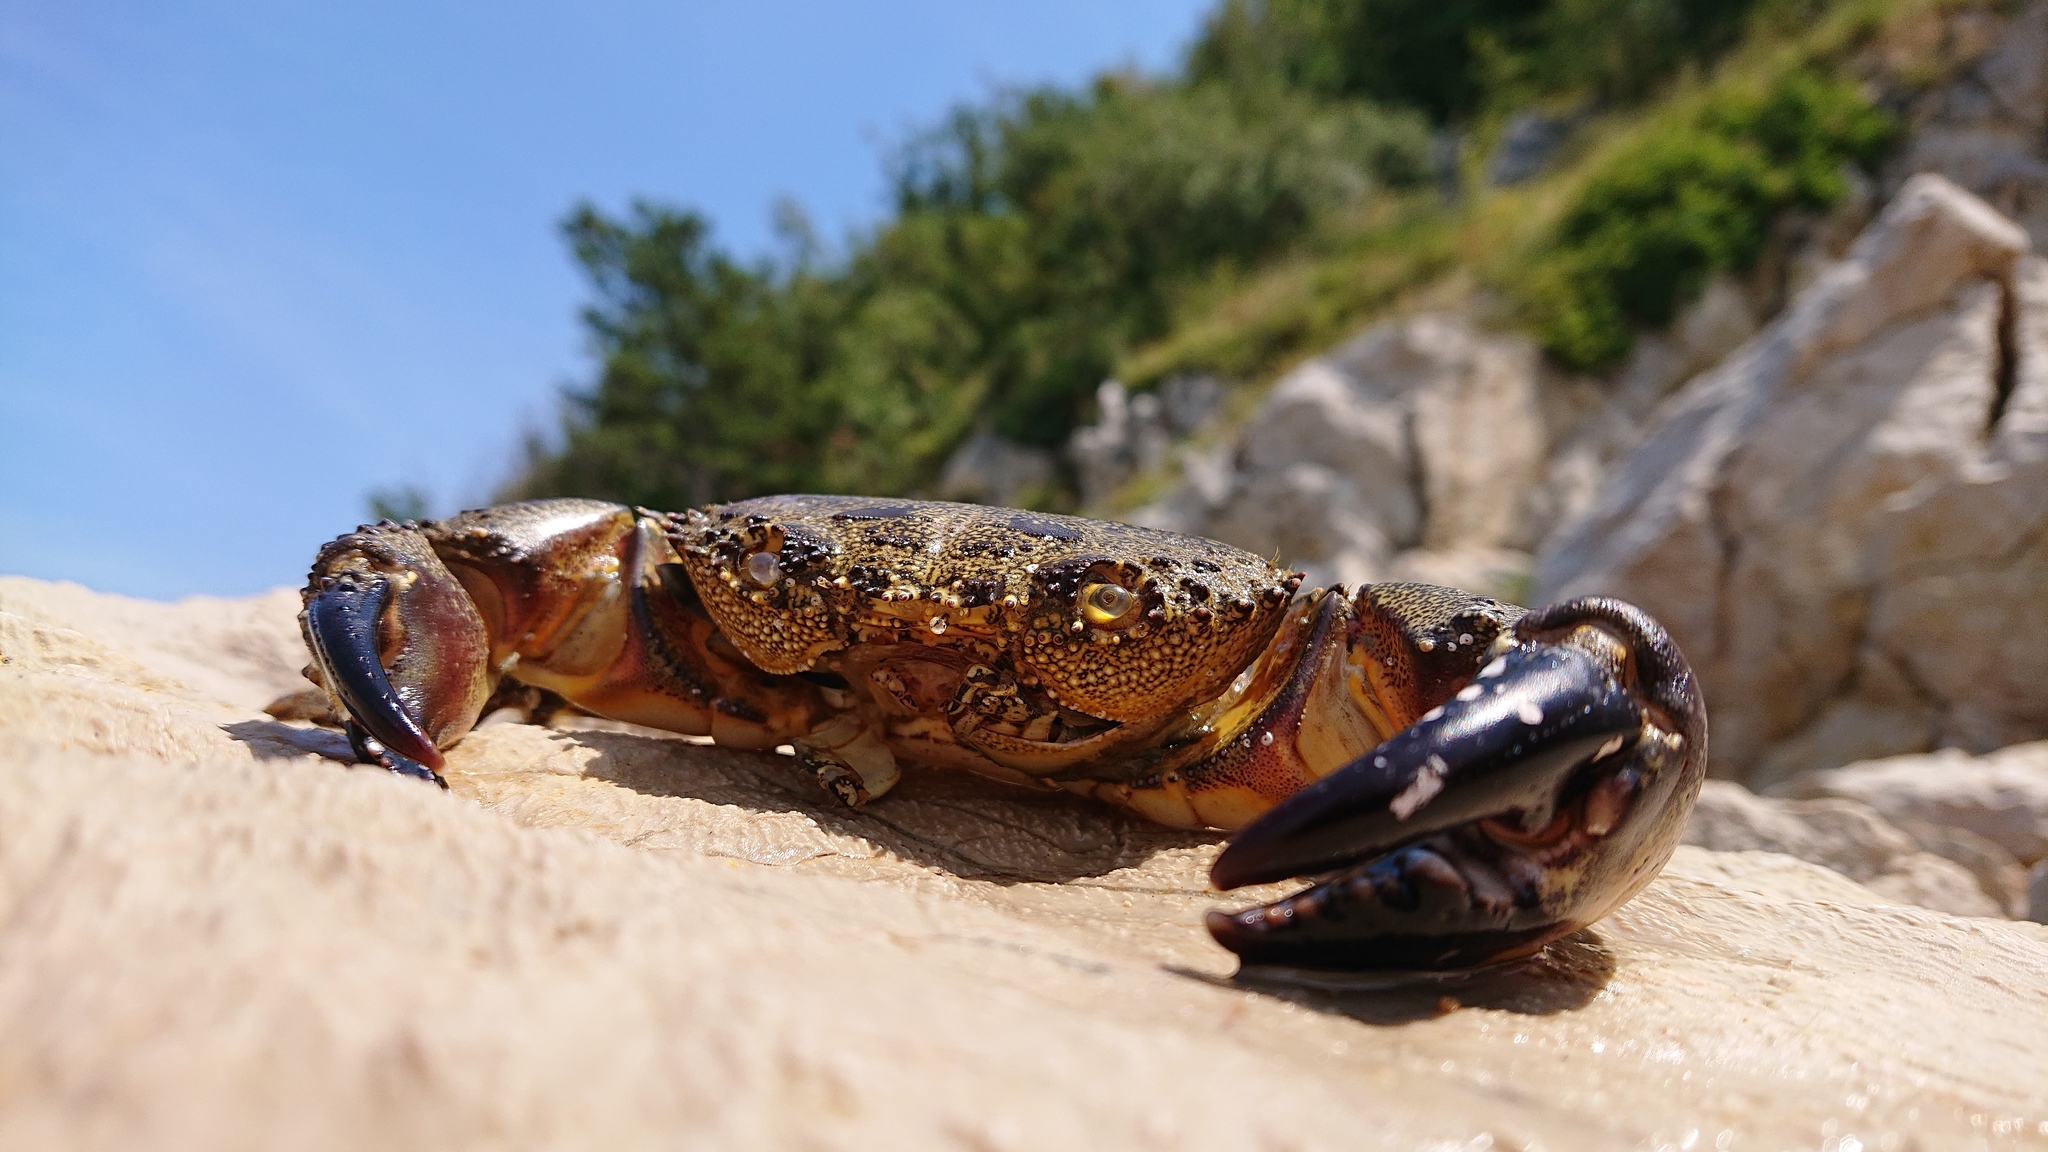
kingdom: Animalia
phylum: Arthropoda
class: Malacostraca
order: Decapoda
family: Eriphiidae
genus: Eriphia
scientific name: Eriphia verrucosa
